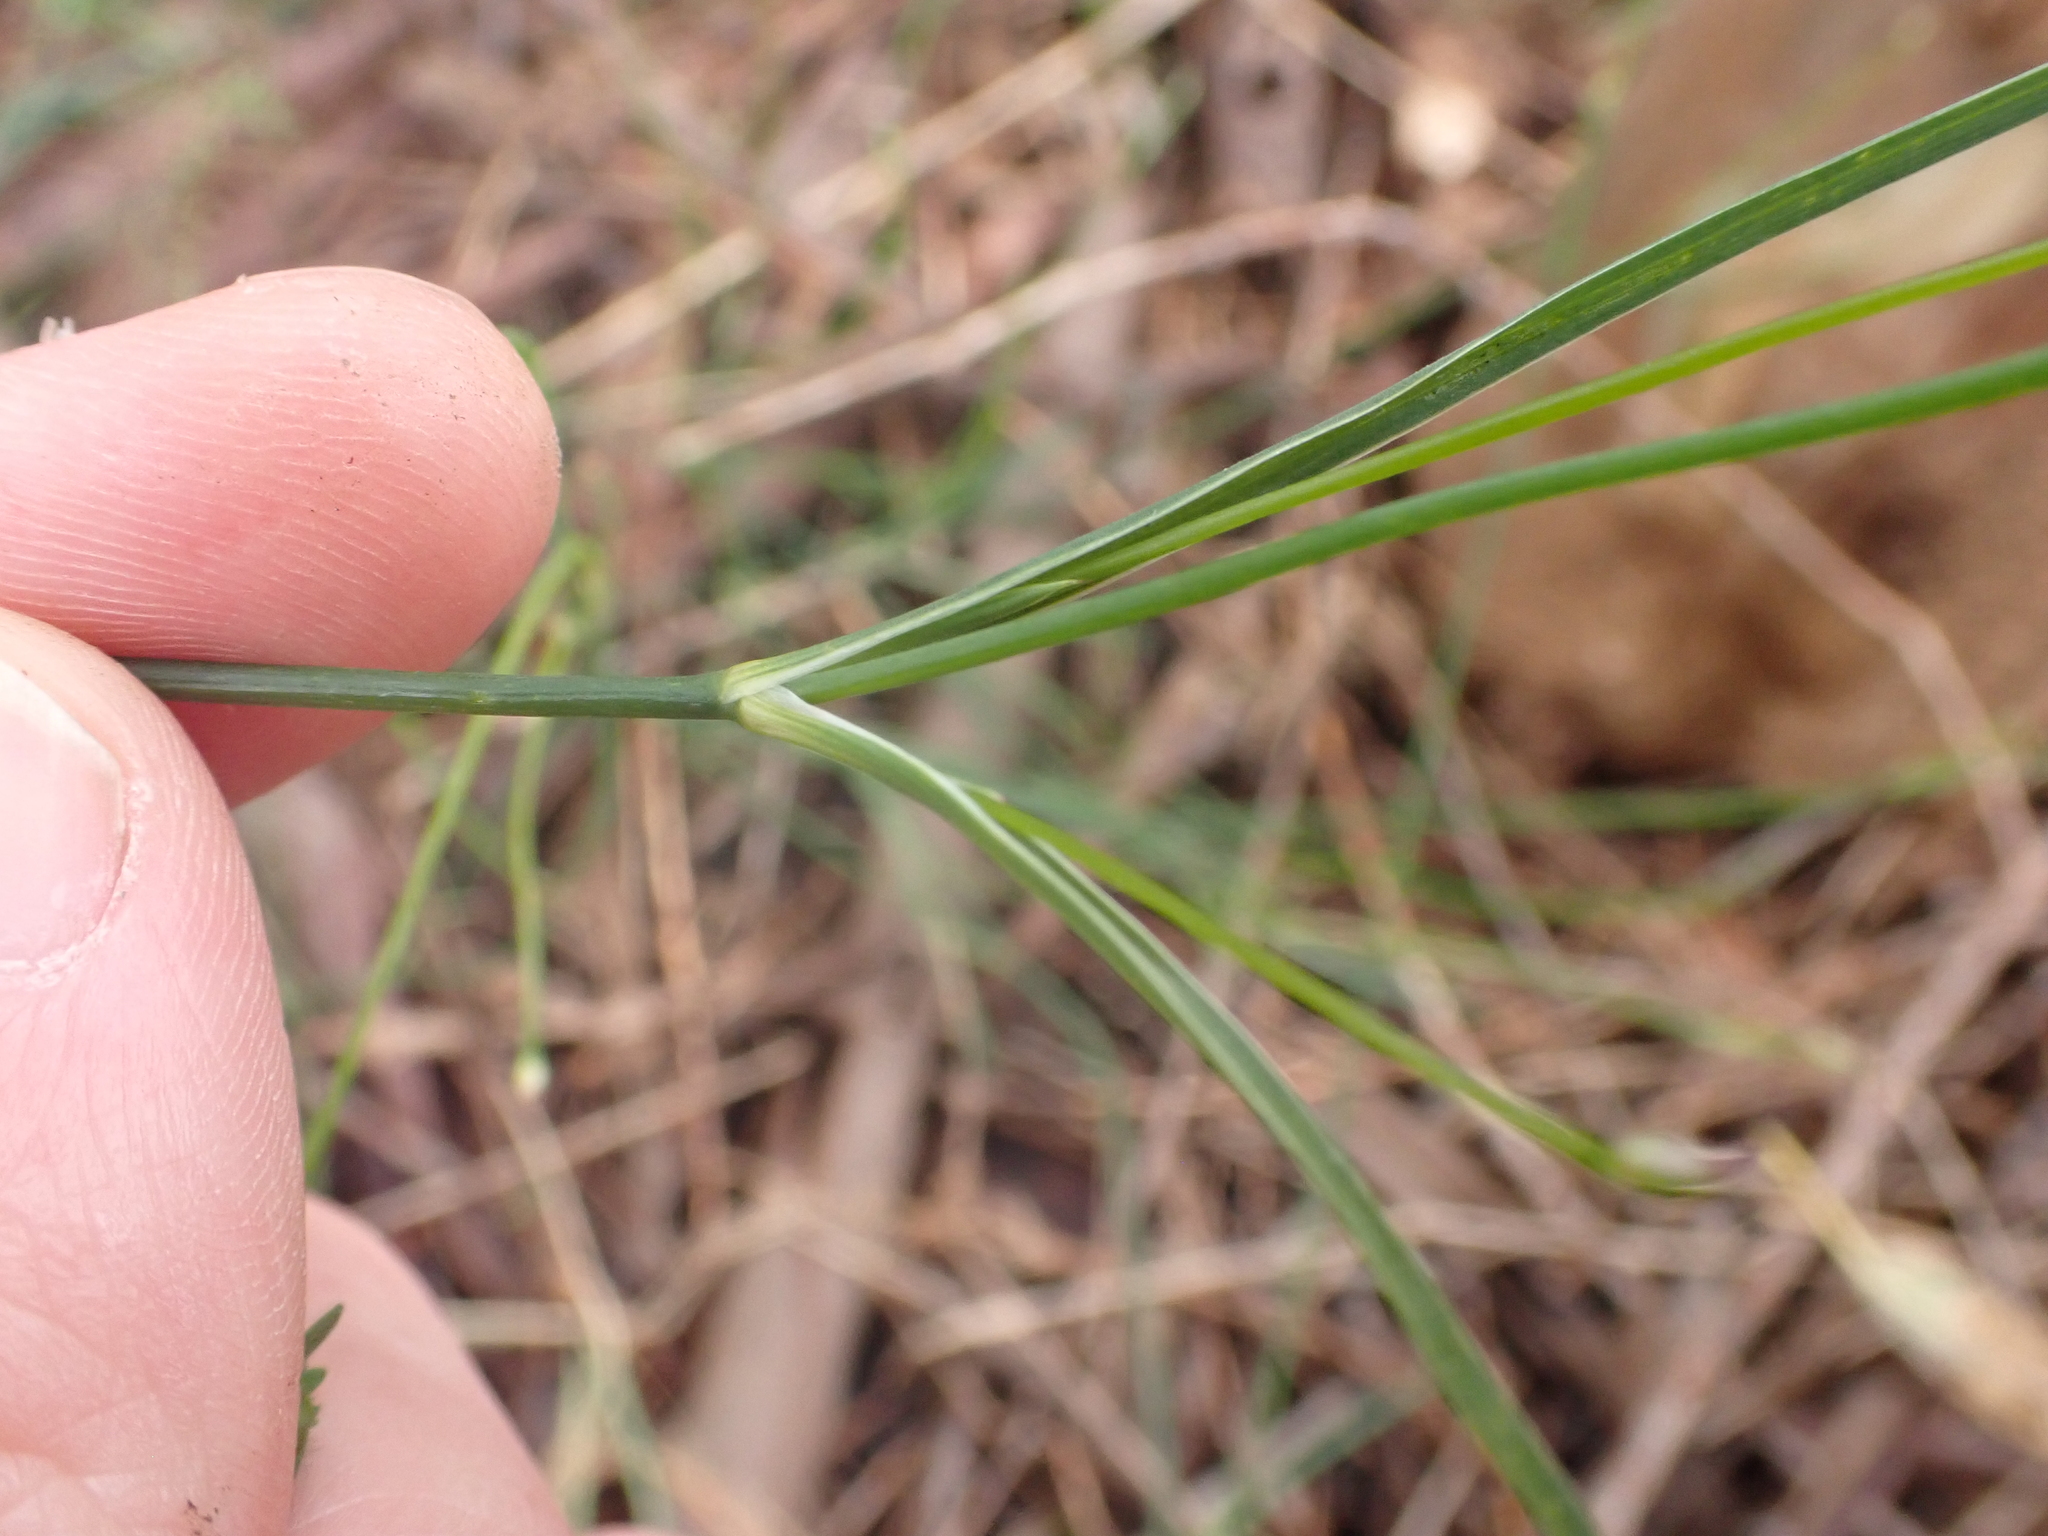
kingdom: Plantae
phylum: Tracheophyta
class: Liliopsida
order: Asparagales
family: Asphodelaceae
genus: Tricoryne
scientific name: Tricoryne elatior
